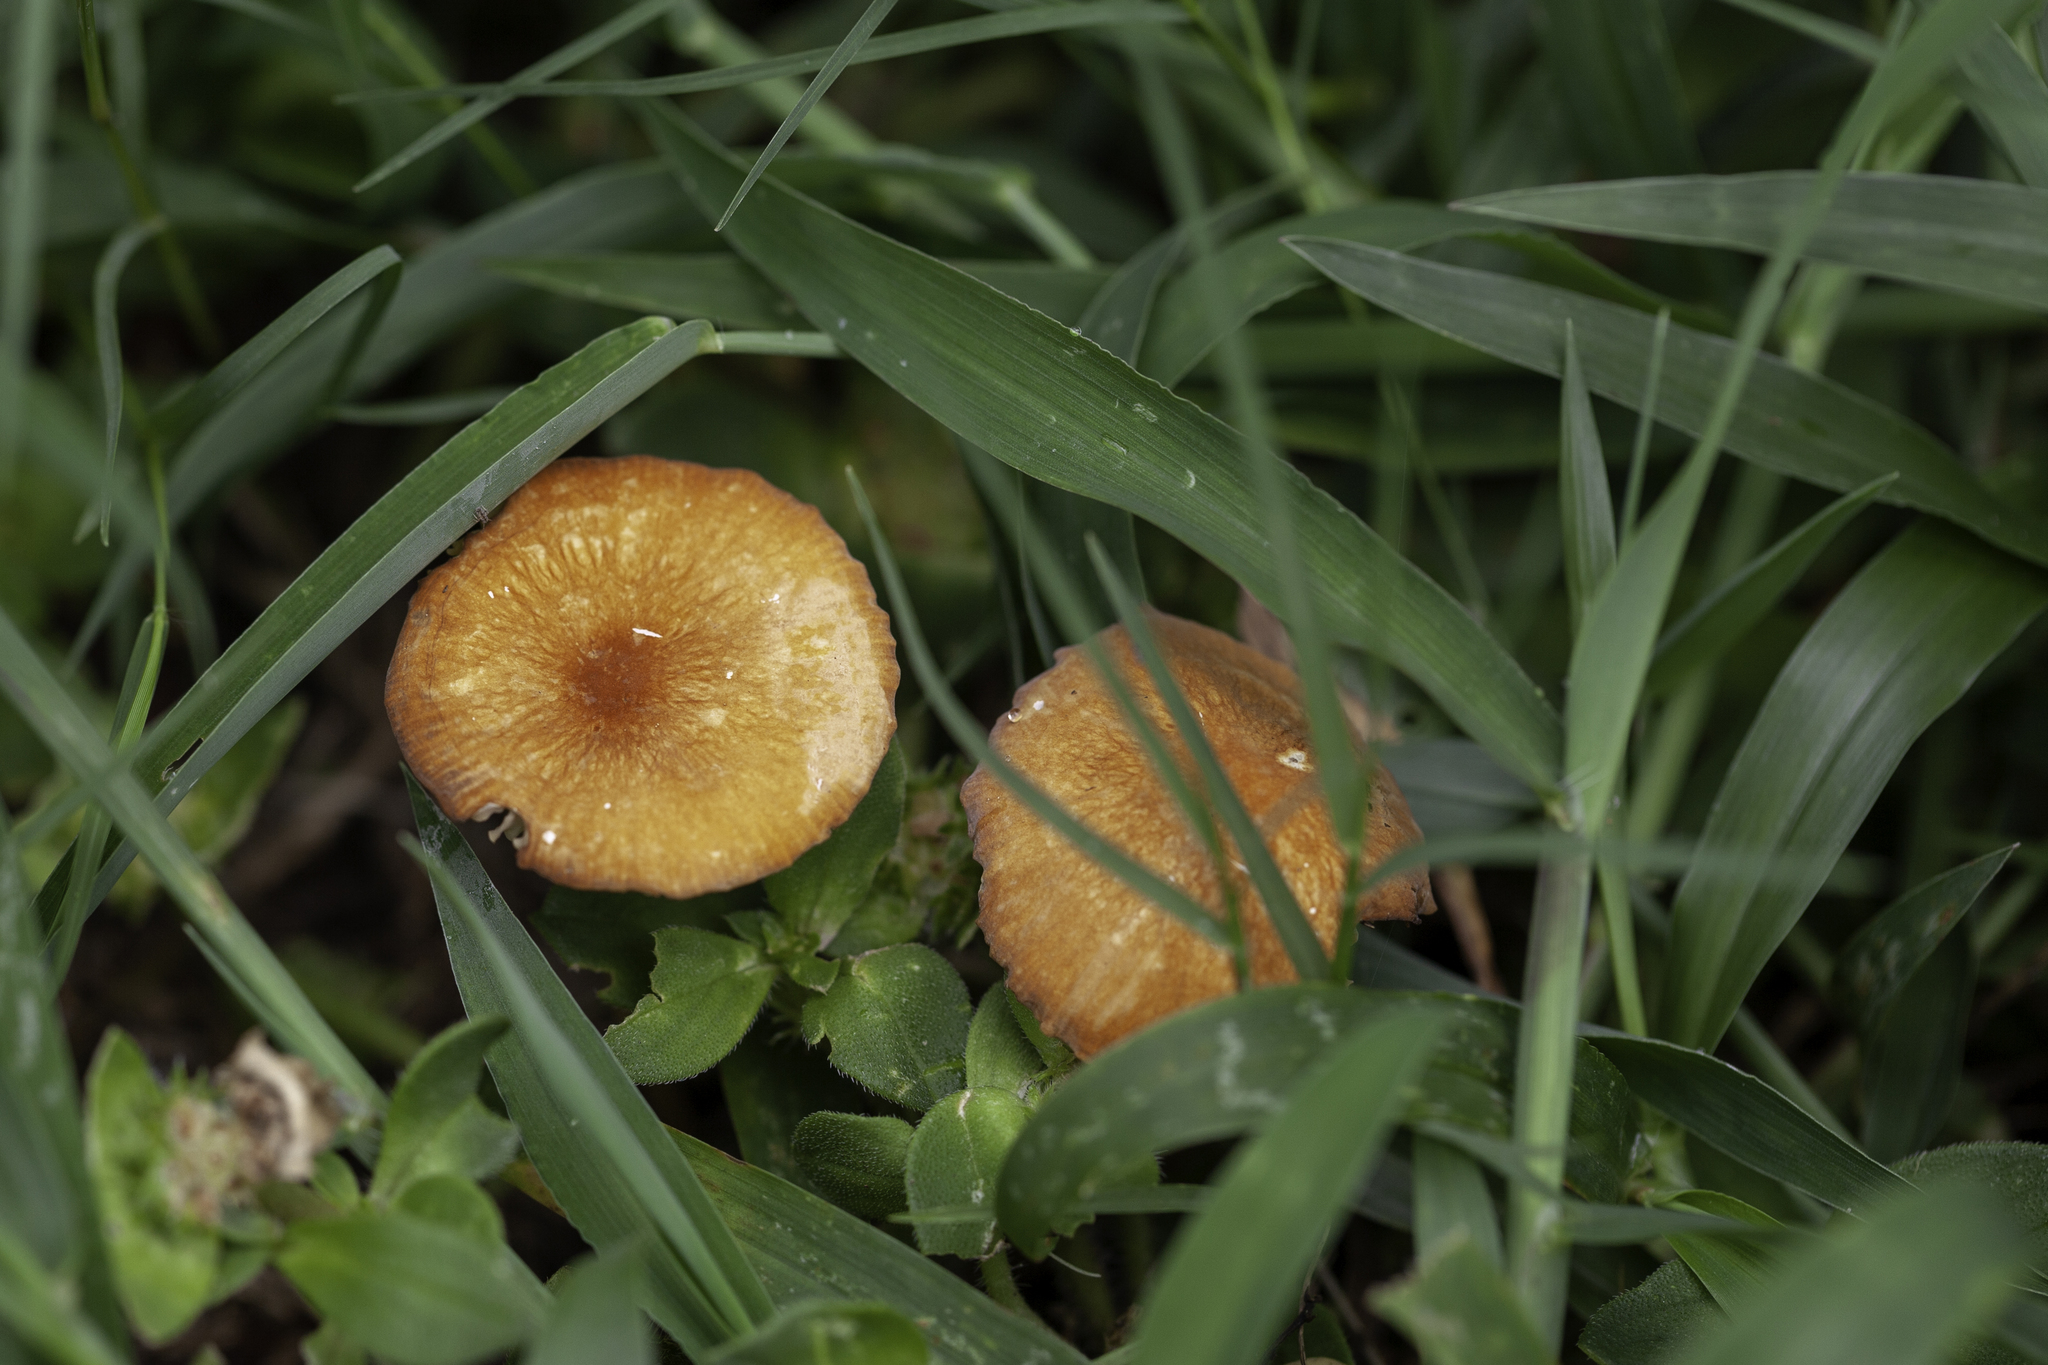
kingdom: Fungi
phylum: Basidiomycota
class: Agaricomycetes
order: Agaricales
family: Marasmiaceae
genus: Marasmius
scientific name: Marasmius vagus
